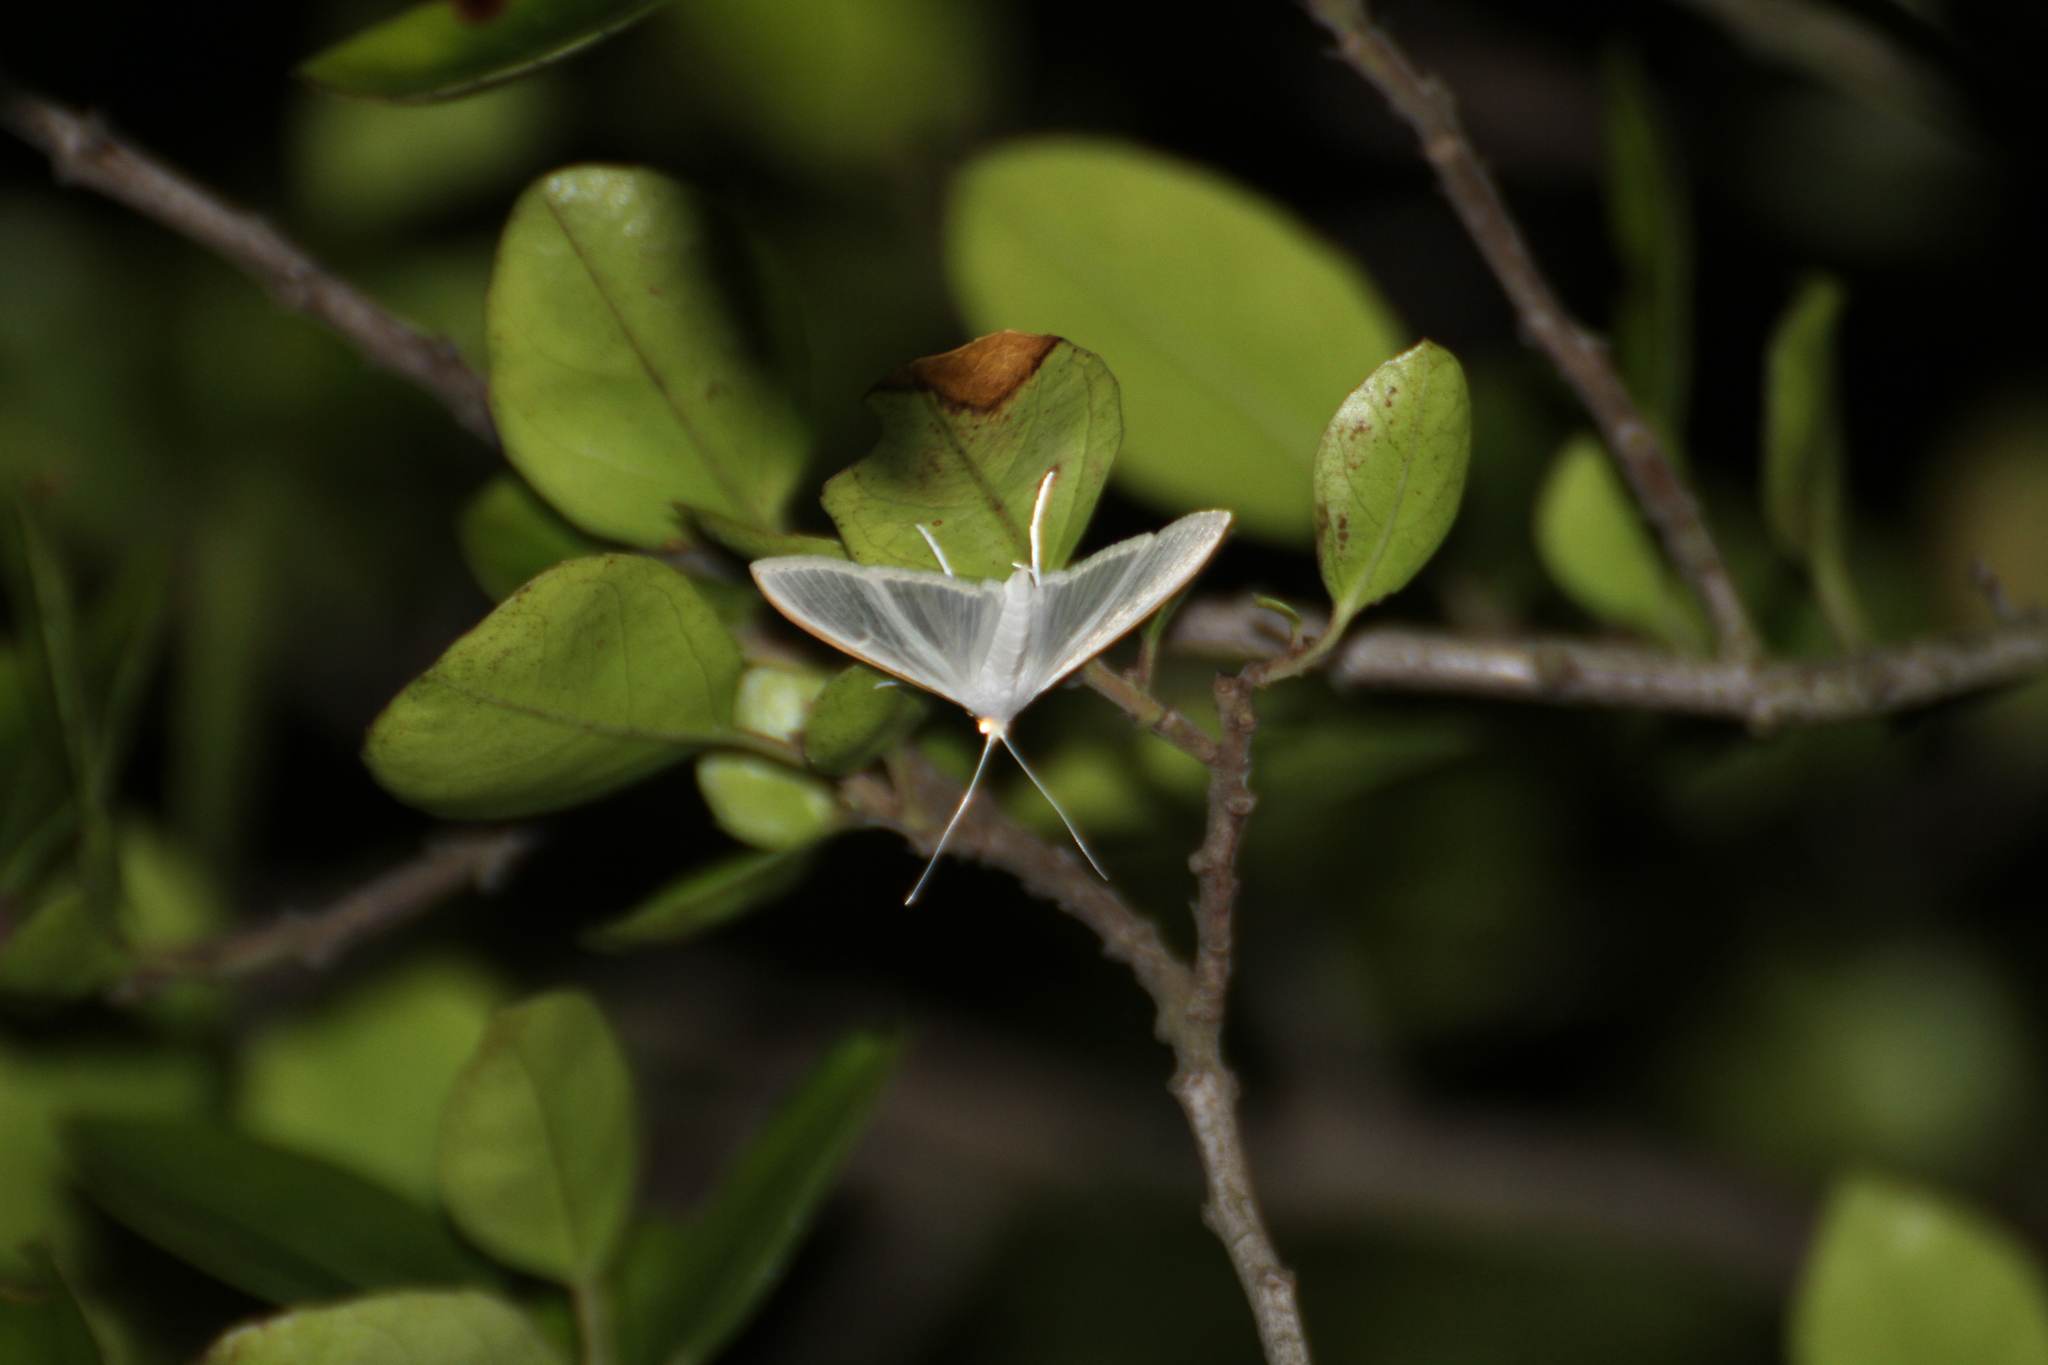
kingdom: Animalia
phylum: Arthropoda
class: Insecta
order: Lepidoptera
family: Crambidae
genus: Palpita
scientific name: Palpita vitrealis
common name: Olive-tree pearl
